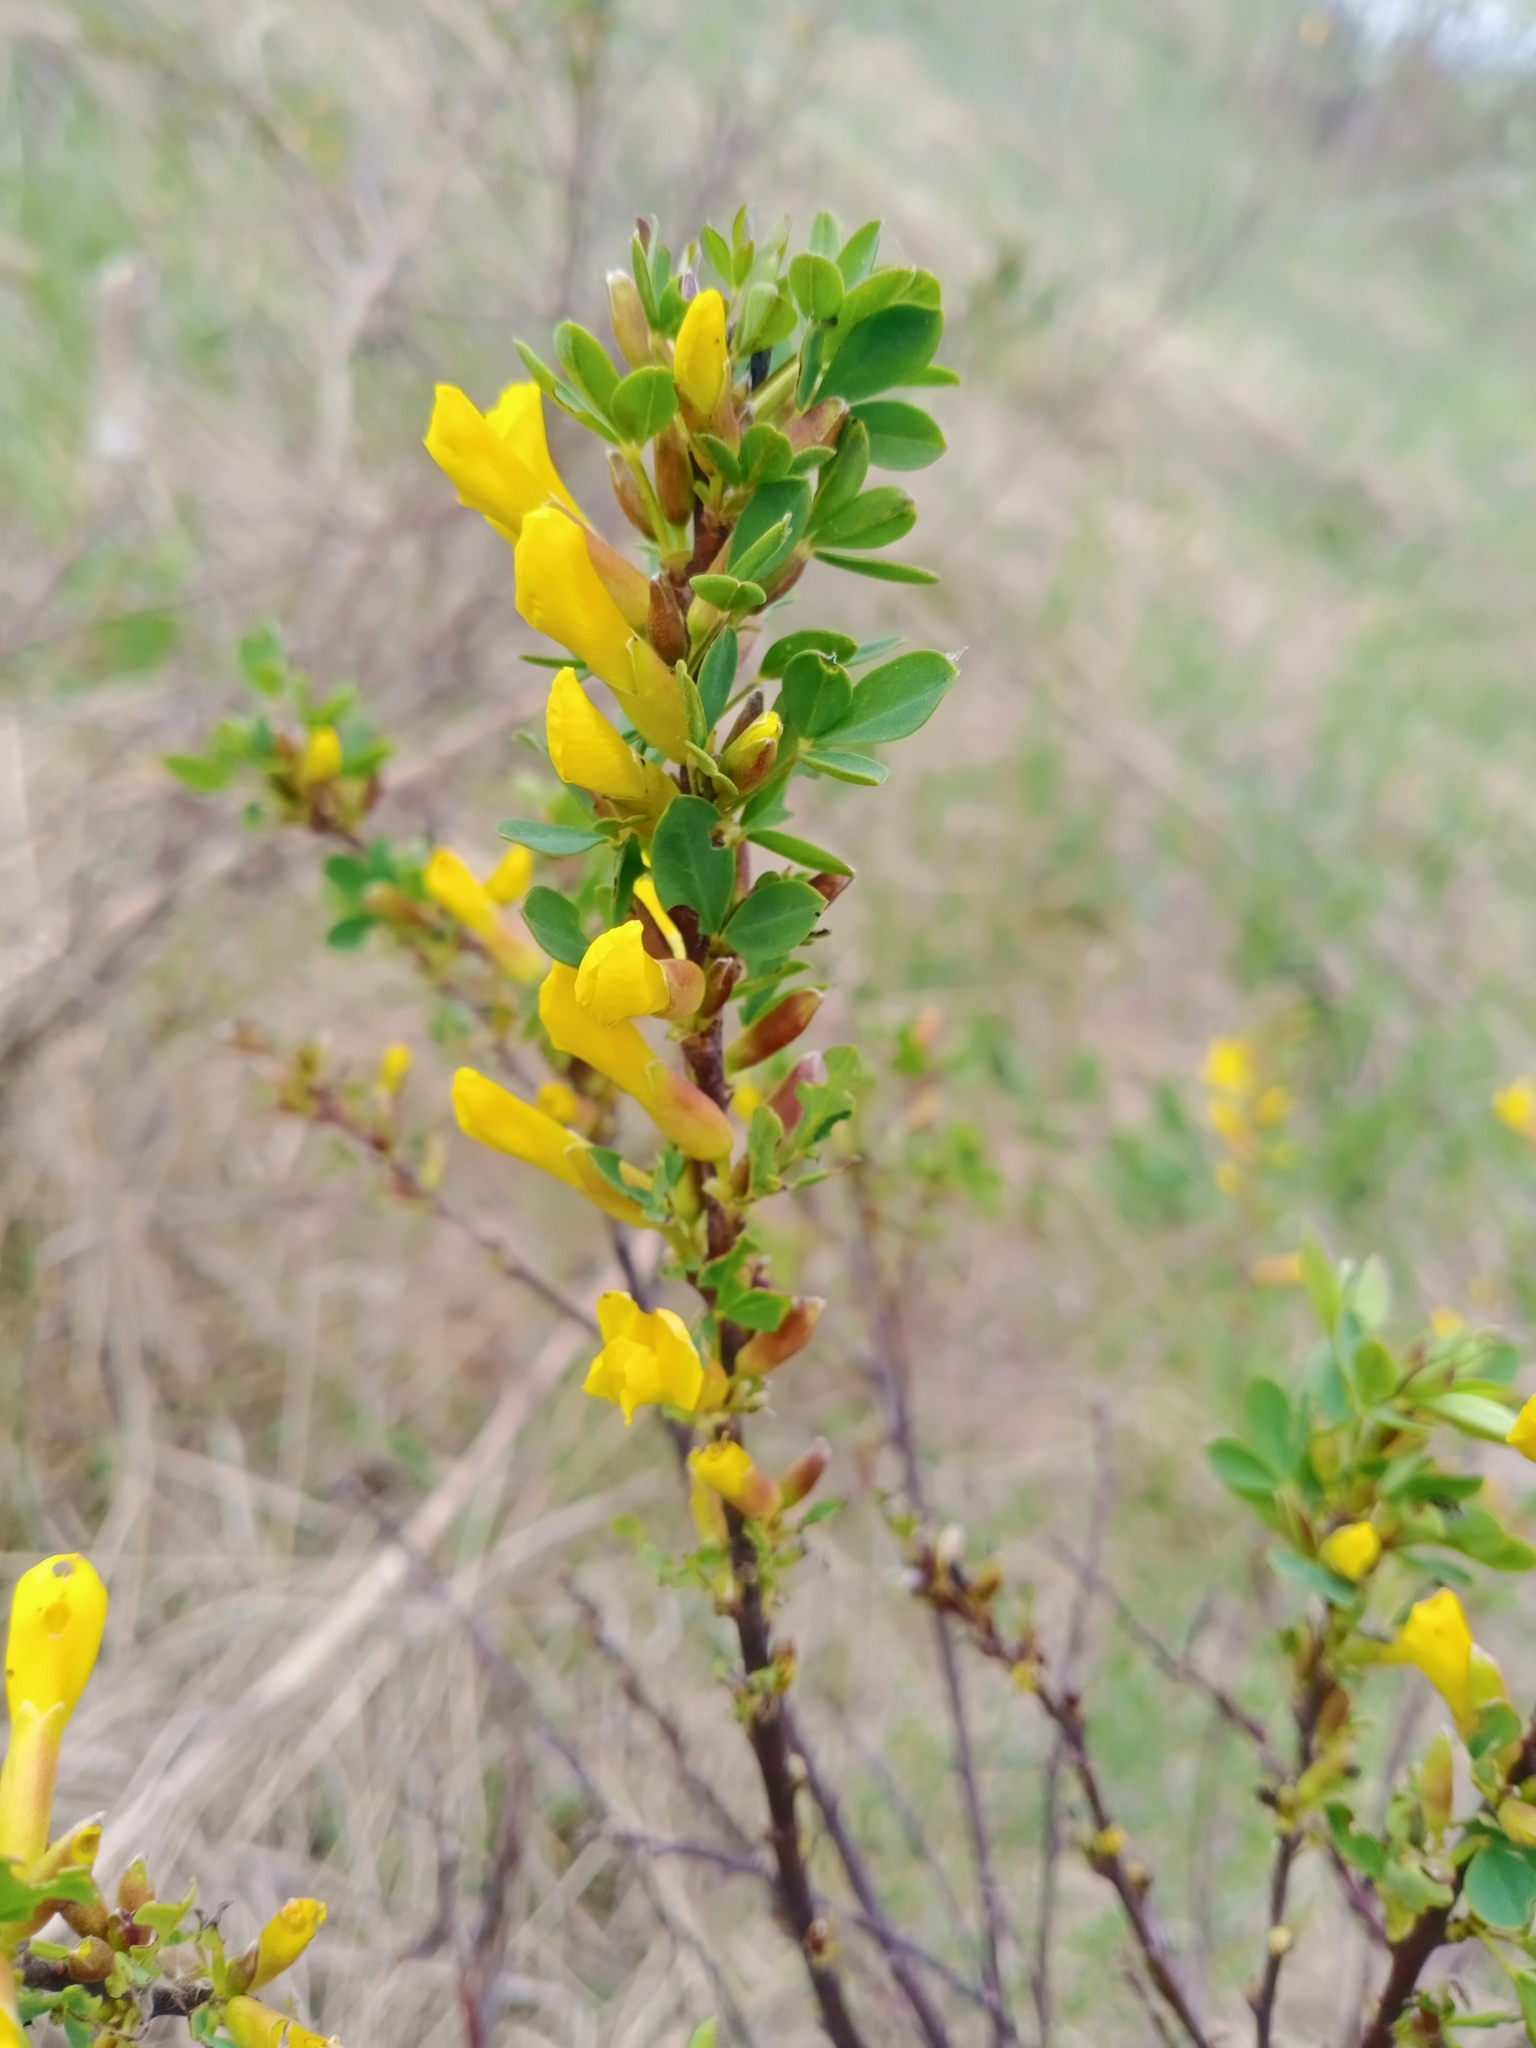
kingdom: Plantae
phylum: Tracheophyta
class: Magnoliopsida
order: Fabales
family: Fabaceae
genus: Chamaecytisus
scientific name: Chamaecytisus ruthenicus
